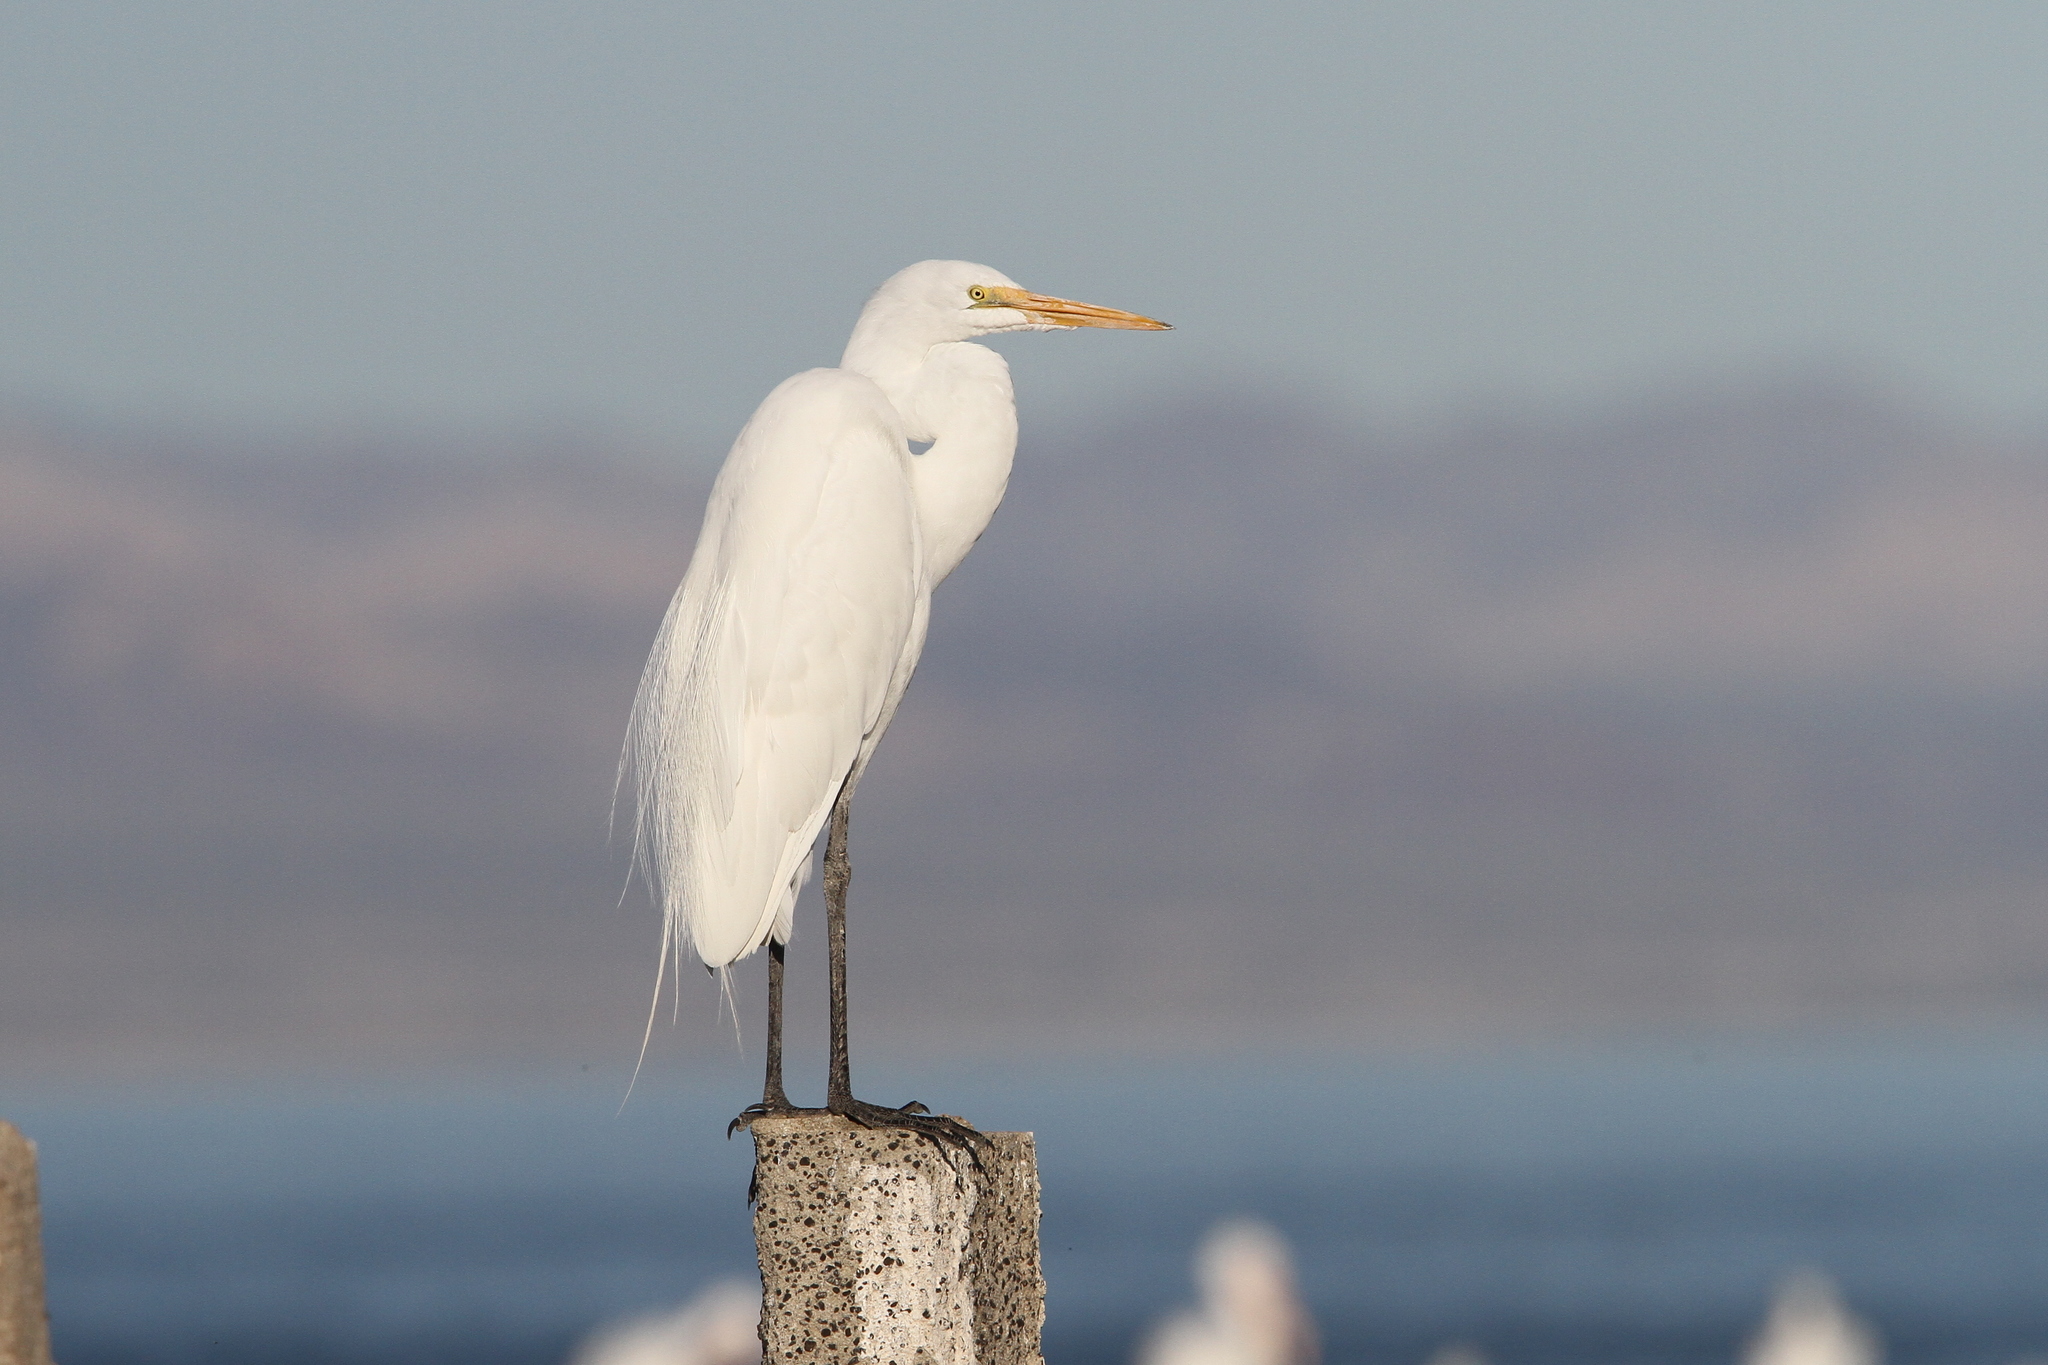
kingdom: Animalia
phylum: Chordata
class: Aves
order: Pelecaniformes
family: Ardeidae
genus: Ardea
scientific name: Ardea alba
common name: Great egret
